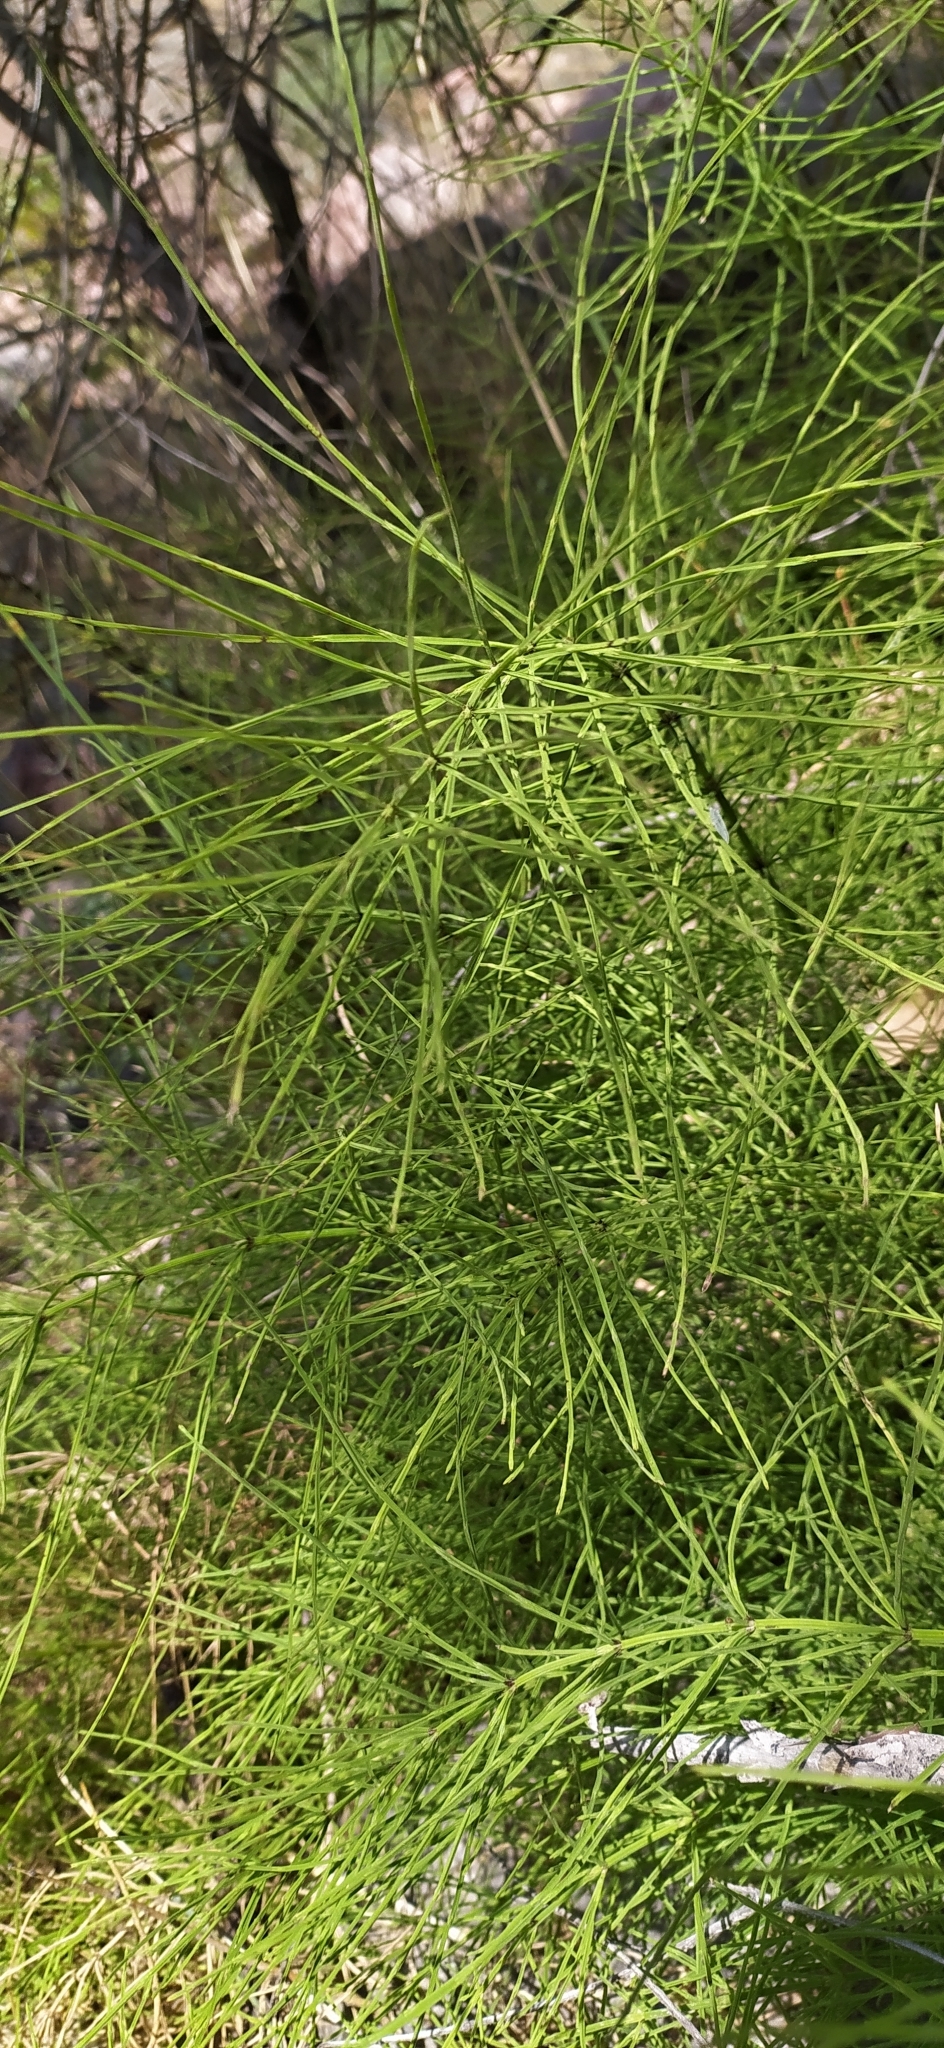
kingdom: Plantae
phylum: Tracheophyta
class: Polypodiopsida
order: Equisetales
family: Equisetaceae
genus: Equisetum
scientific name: Equisetum arvense
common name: Field horsetail
